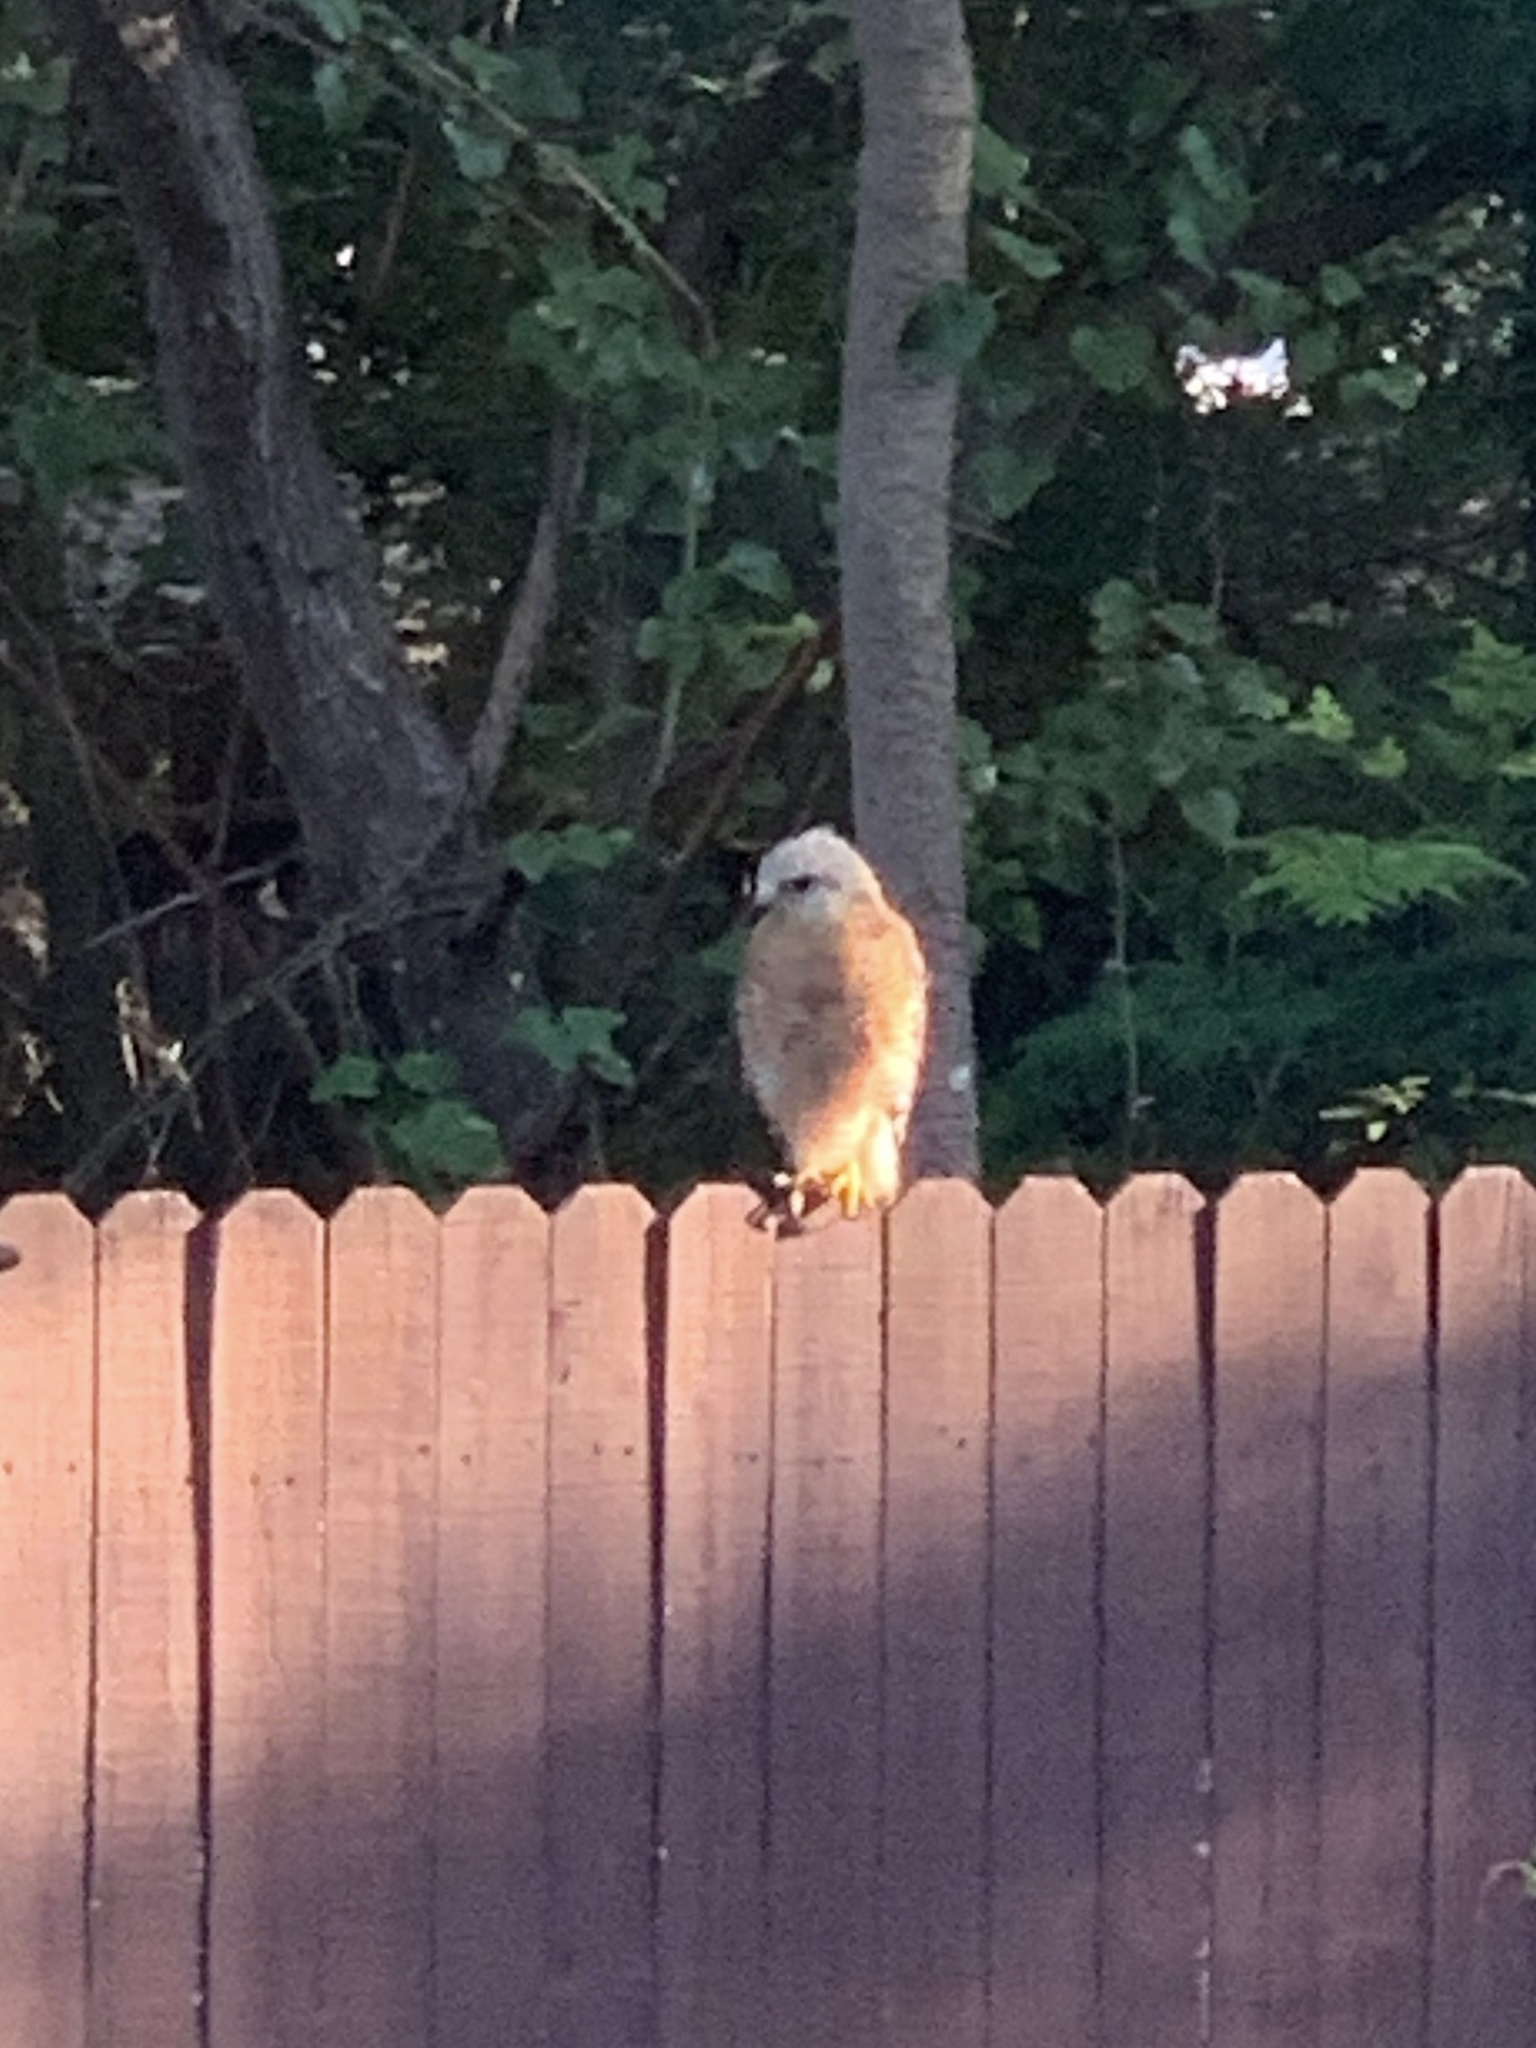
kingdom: Animalia
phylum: Chordata
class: Aves
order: Accipitriformes
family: Accipitridae
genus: Buteo
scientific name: Buteo lineatus
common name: Red-shouldered hawk
